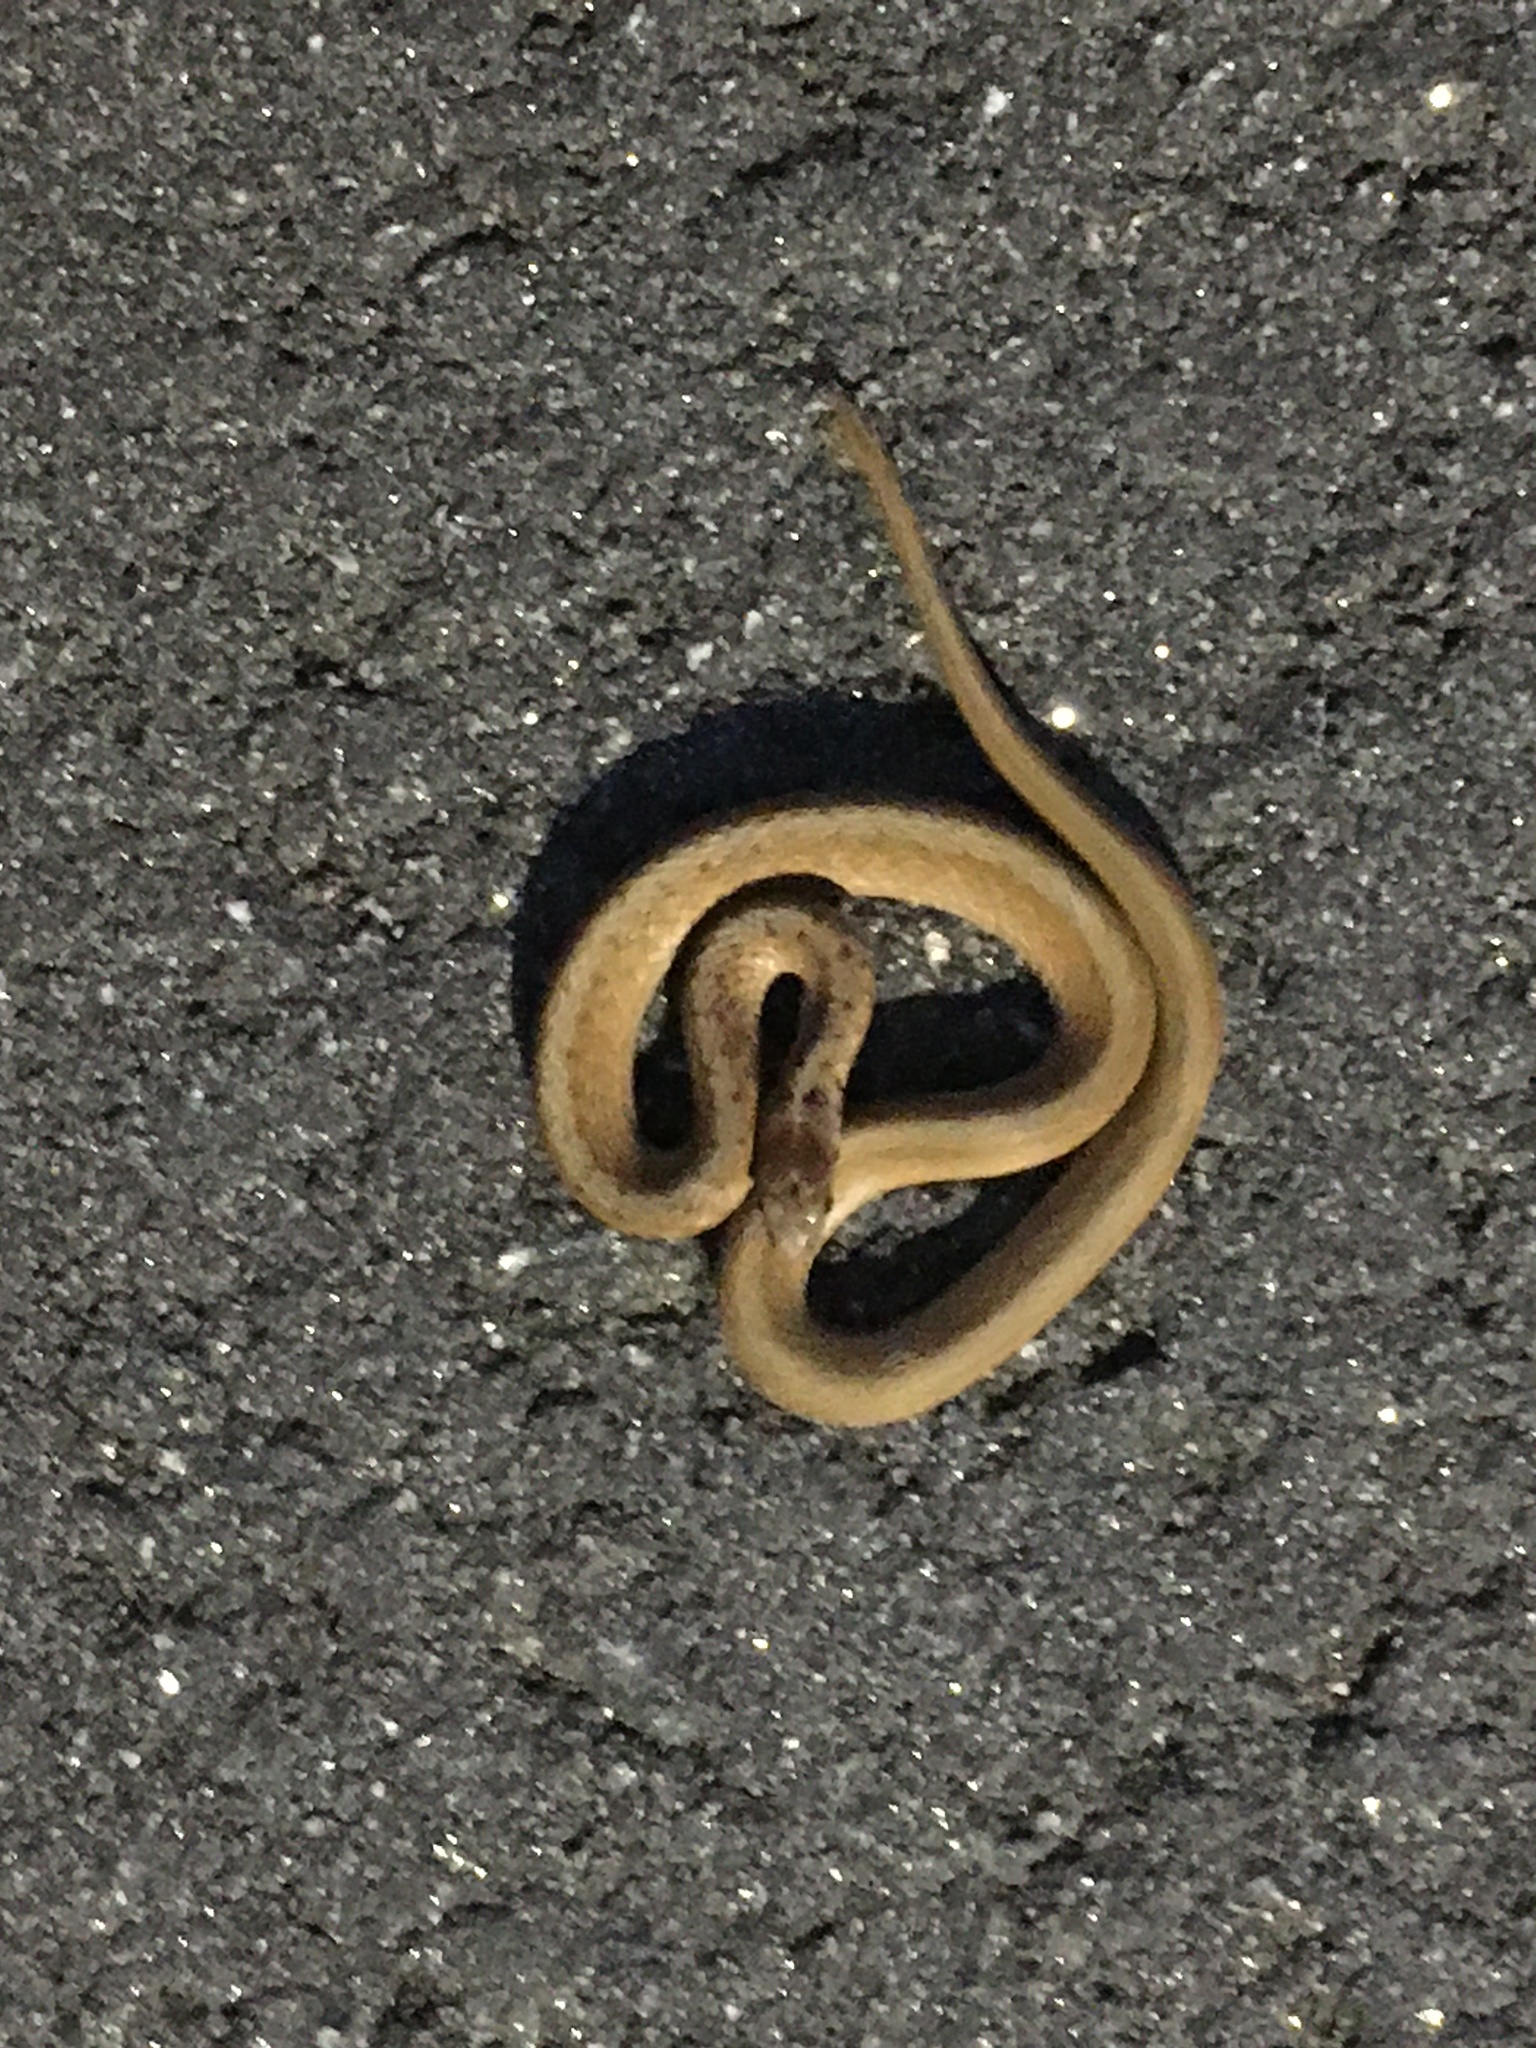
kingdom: Animalia
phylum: Chordata
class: Squamata
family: Colubridae
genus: Storeria
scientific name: Storeria dekayi
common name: (dekay’s) brown snake
